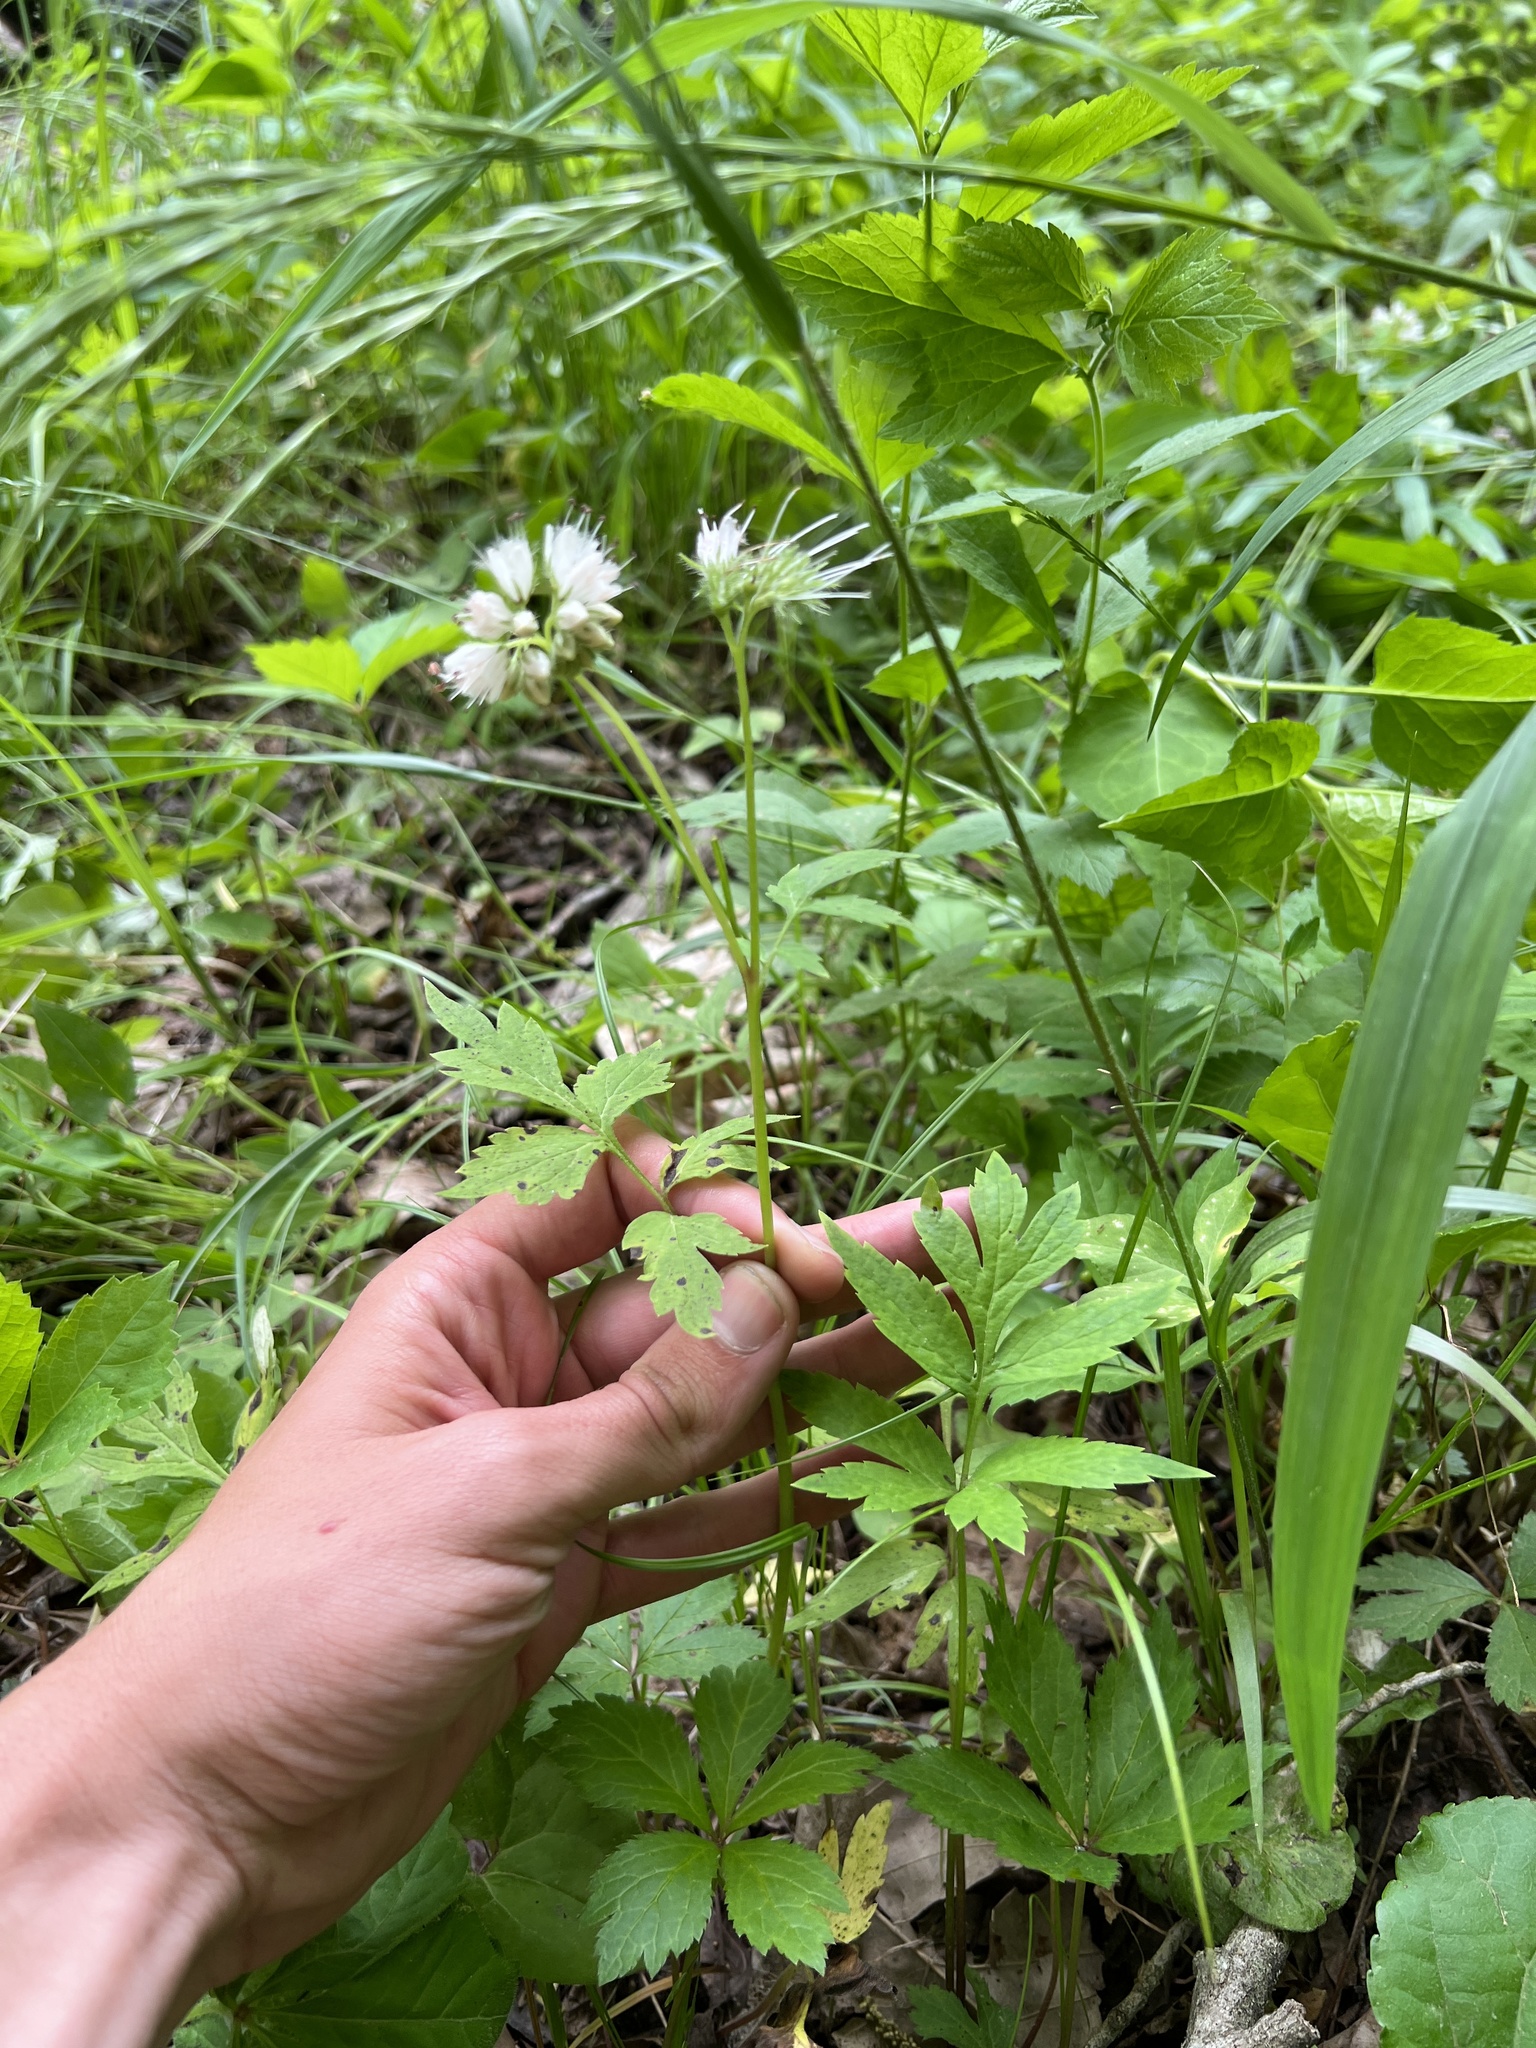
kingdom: Plantae
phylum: Tracheophyta
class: Magnoliopsida
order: Boraginales
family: Hydrophyllaceae
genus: Hydrophyllum
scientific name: Hydrophyllum virginianum
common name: Virginia waterleaf
